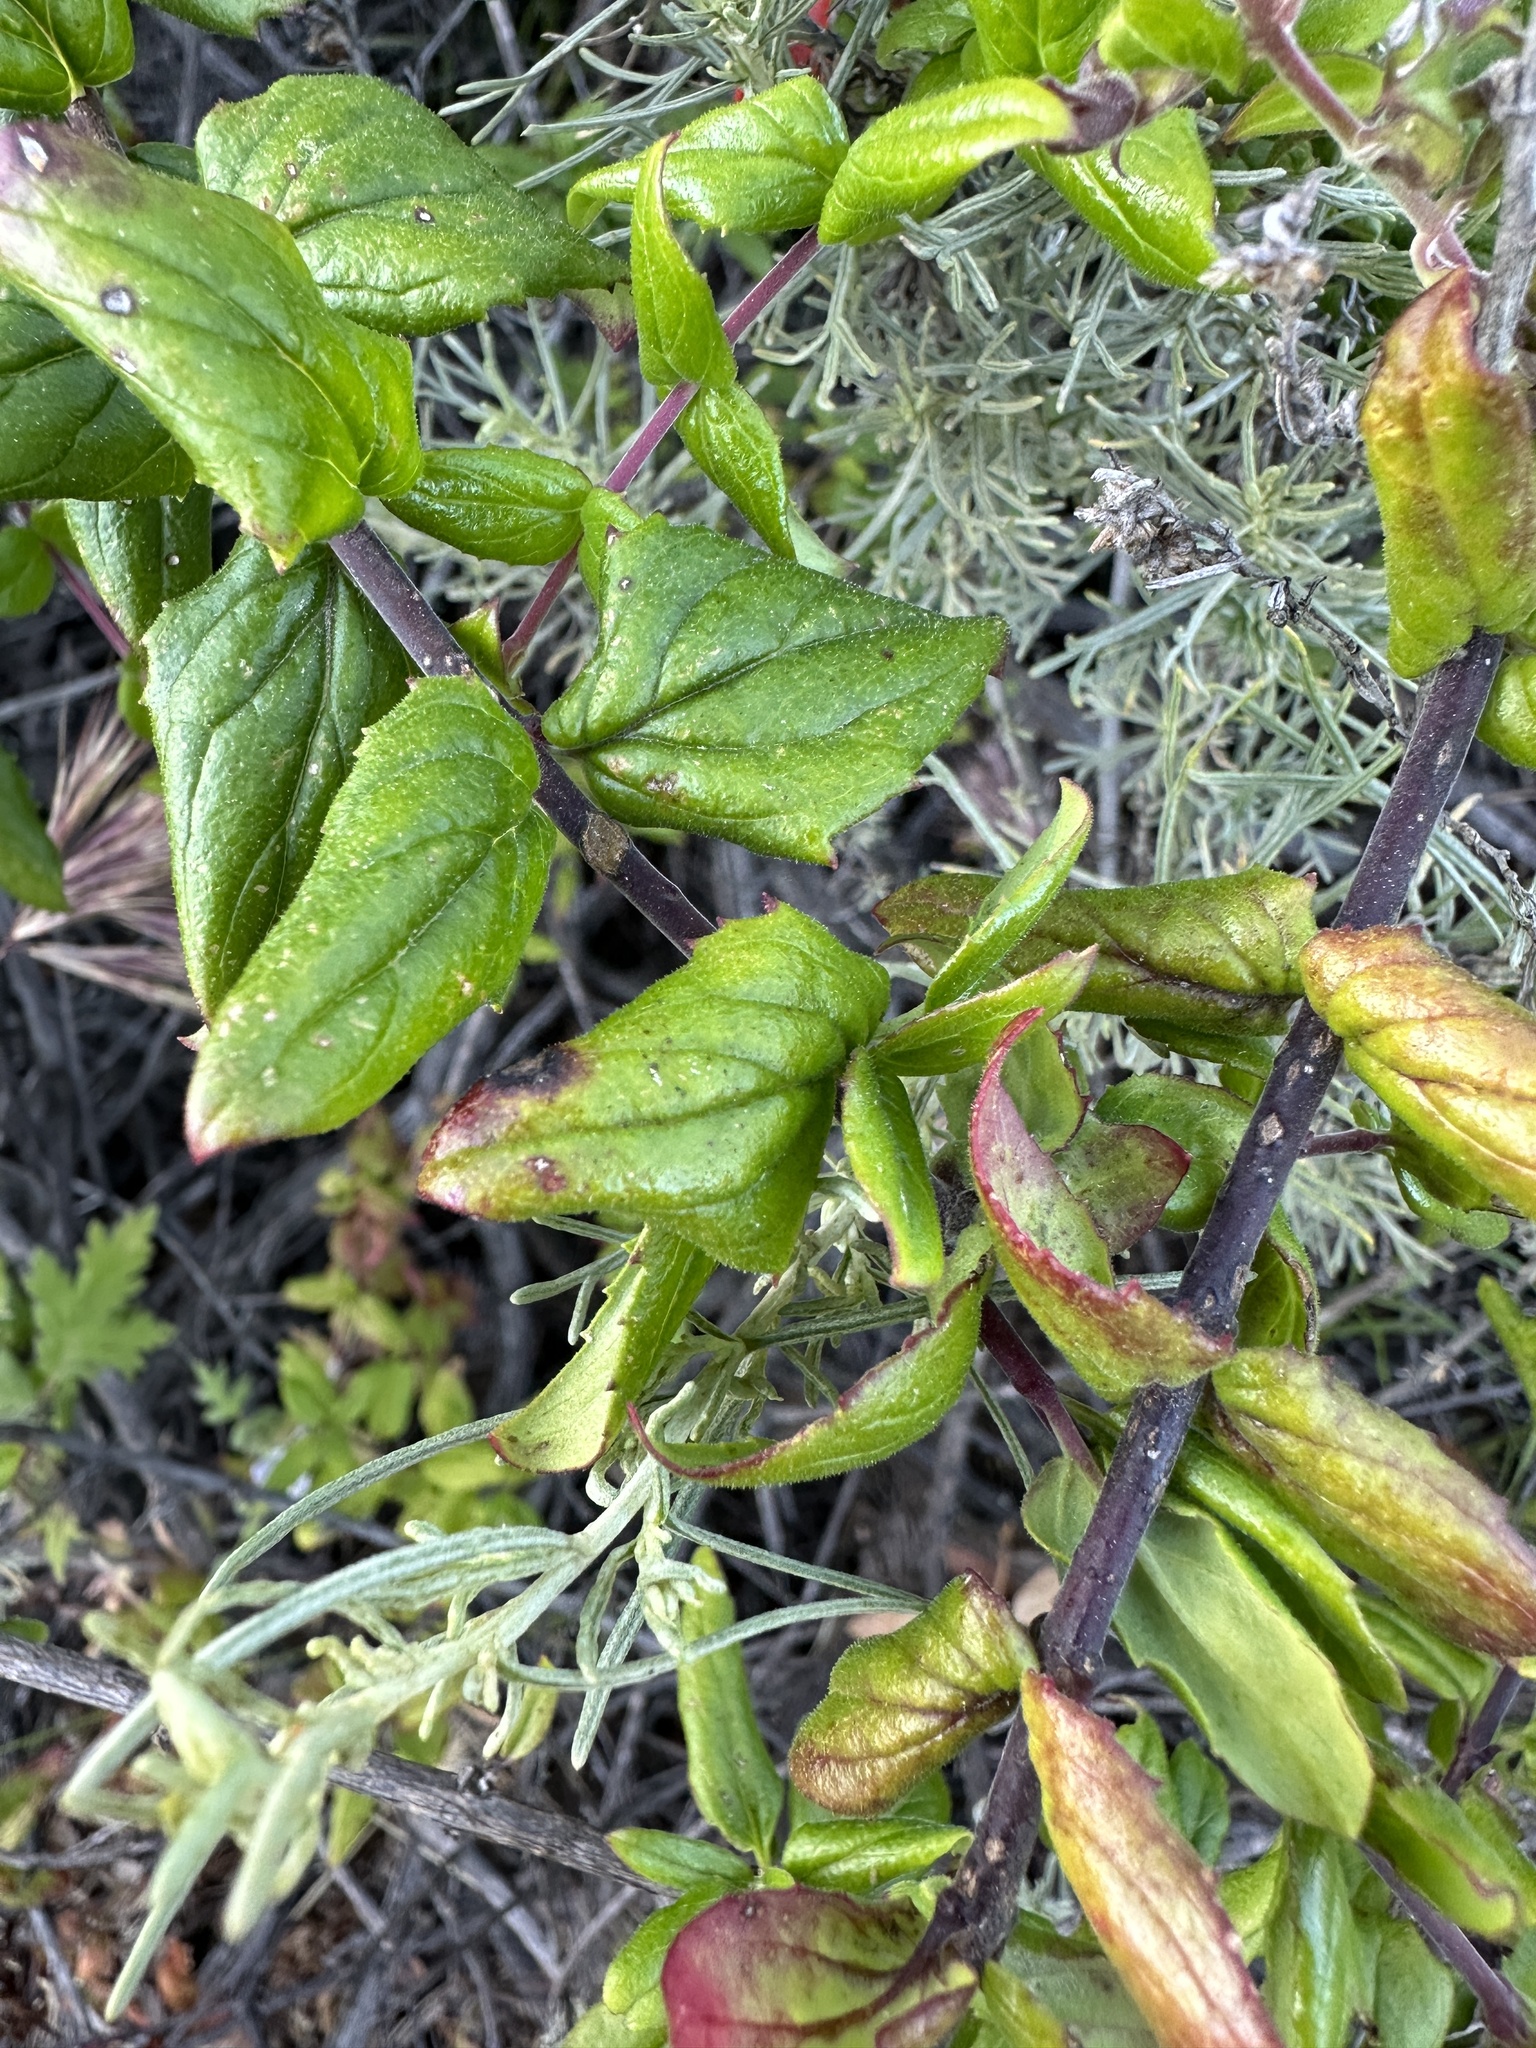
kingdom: Plantae
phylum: Tracheophyta
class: Magnoliopsida
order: Lamiales
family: Plantaginaceae
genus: Keckiella
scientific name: Keckiella cordifolia
